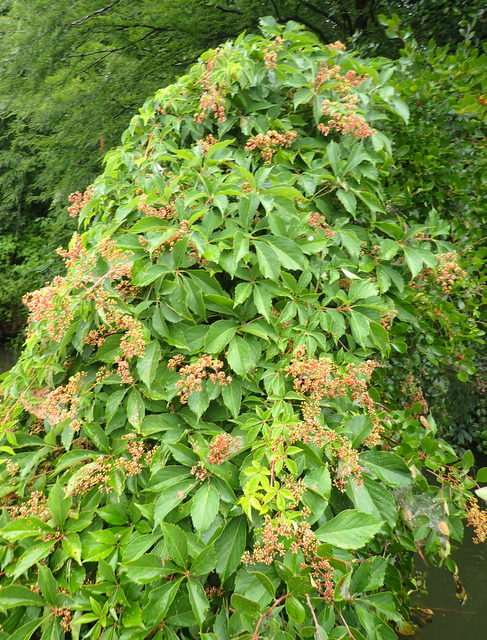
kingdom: Plantae
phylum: Tracheophyta
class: Magnoliopsida
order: Vitales
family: Vitaceae
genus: Parthenocissus
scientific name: Parthenocissus quinquefolia
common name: Virginia-creeper
